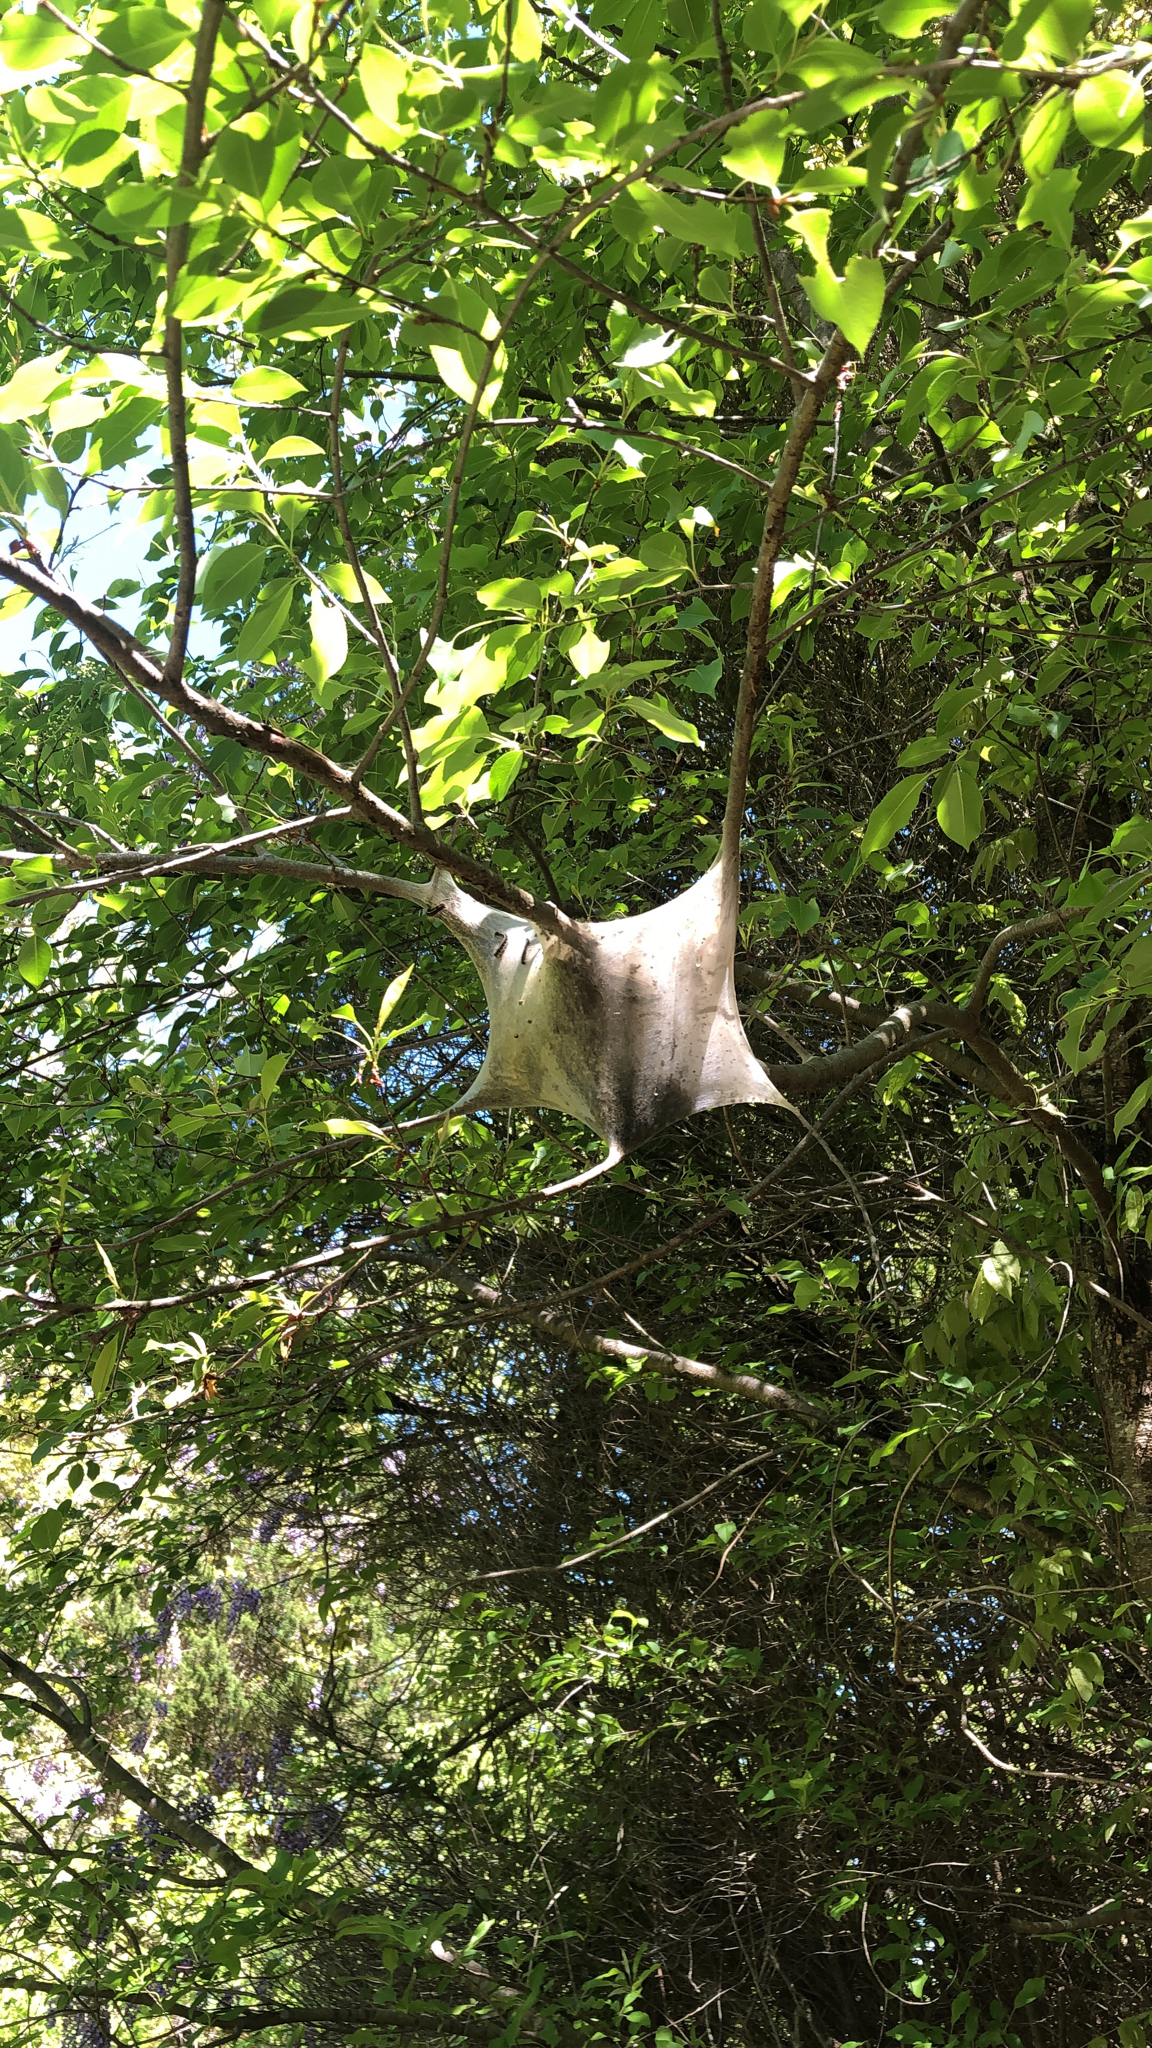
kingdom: Animalia
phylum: Arthropoda
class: Insecta
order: Lepidoptera
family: Lasiocampidae
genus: Malacosoma
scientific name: Malacosoma americana
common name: Eastern tent caterpillar moth
